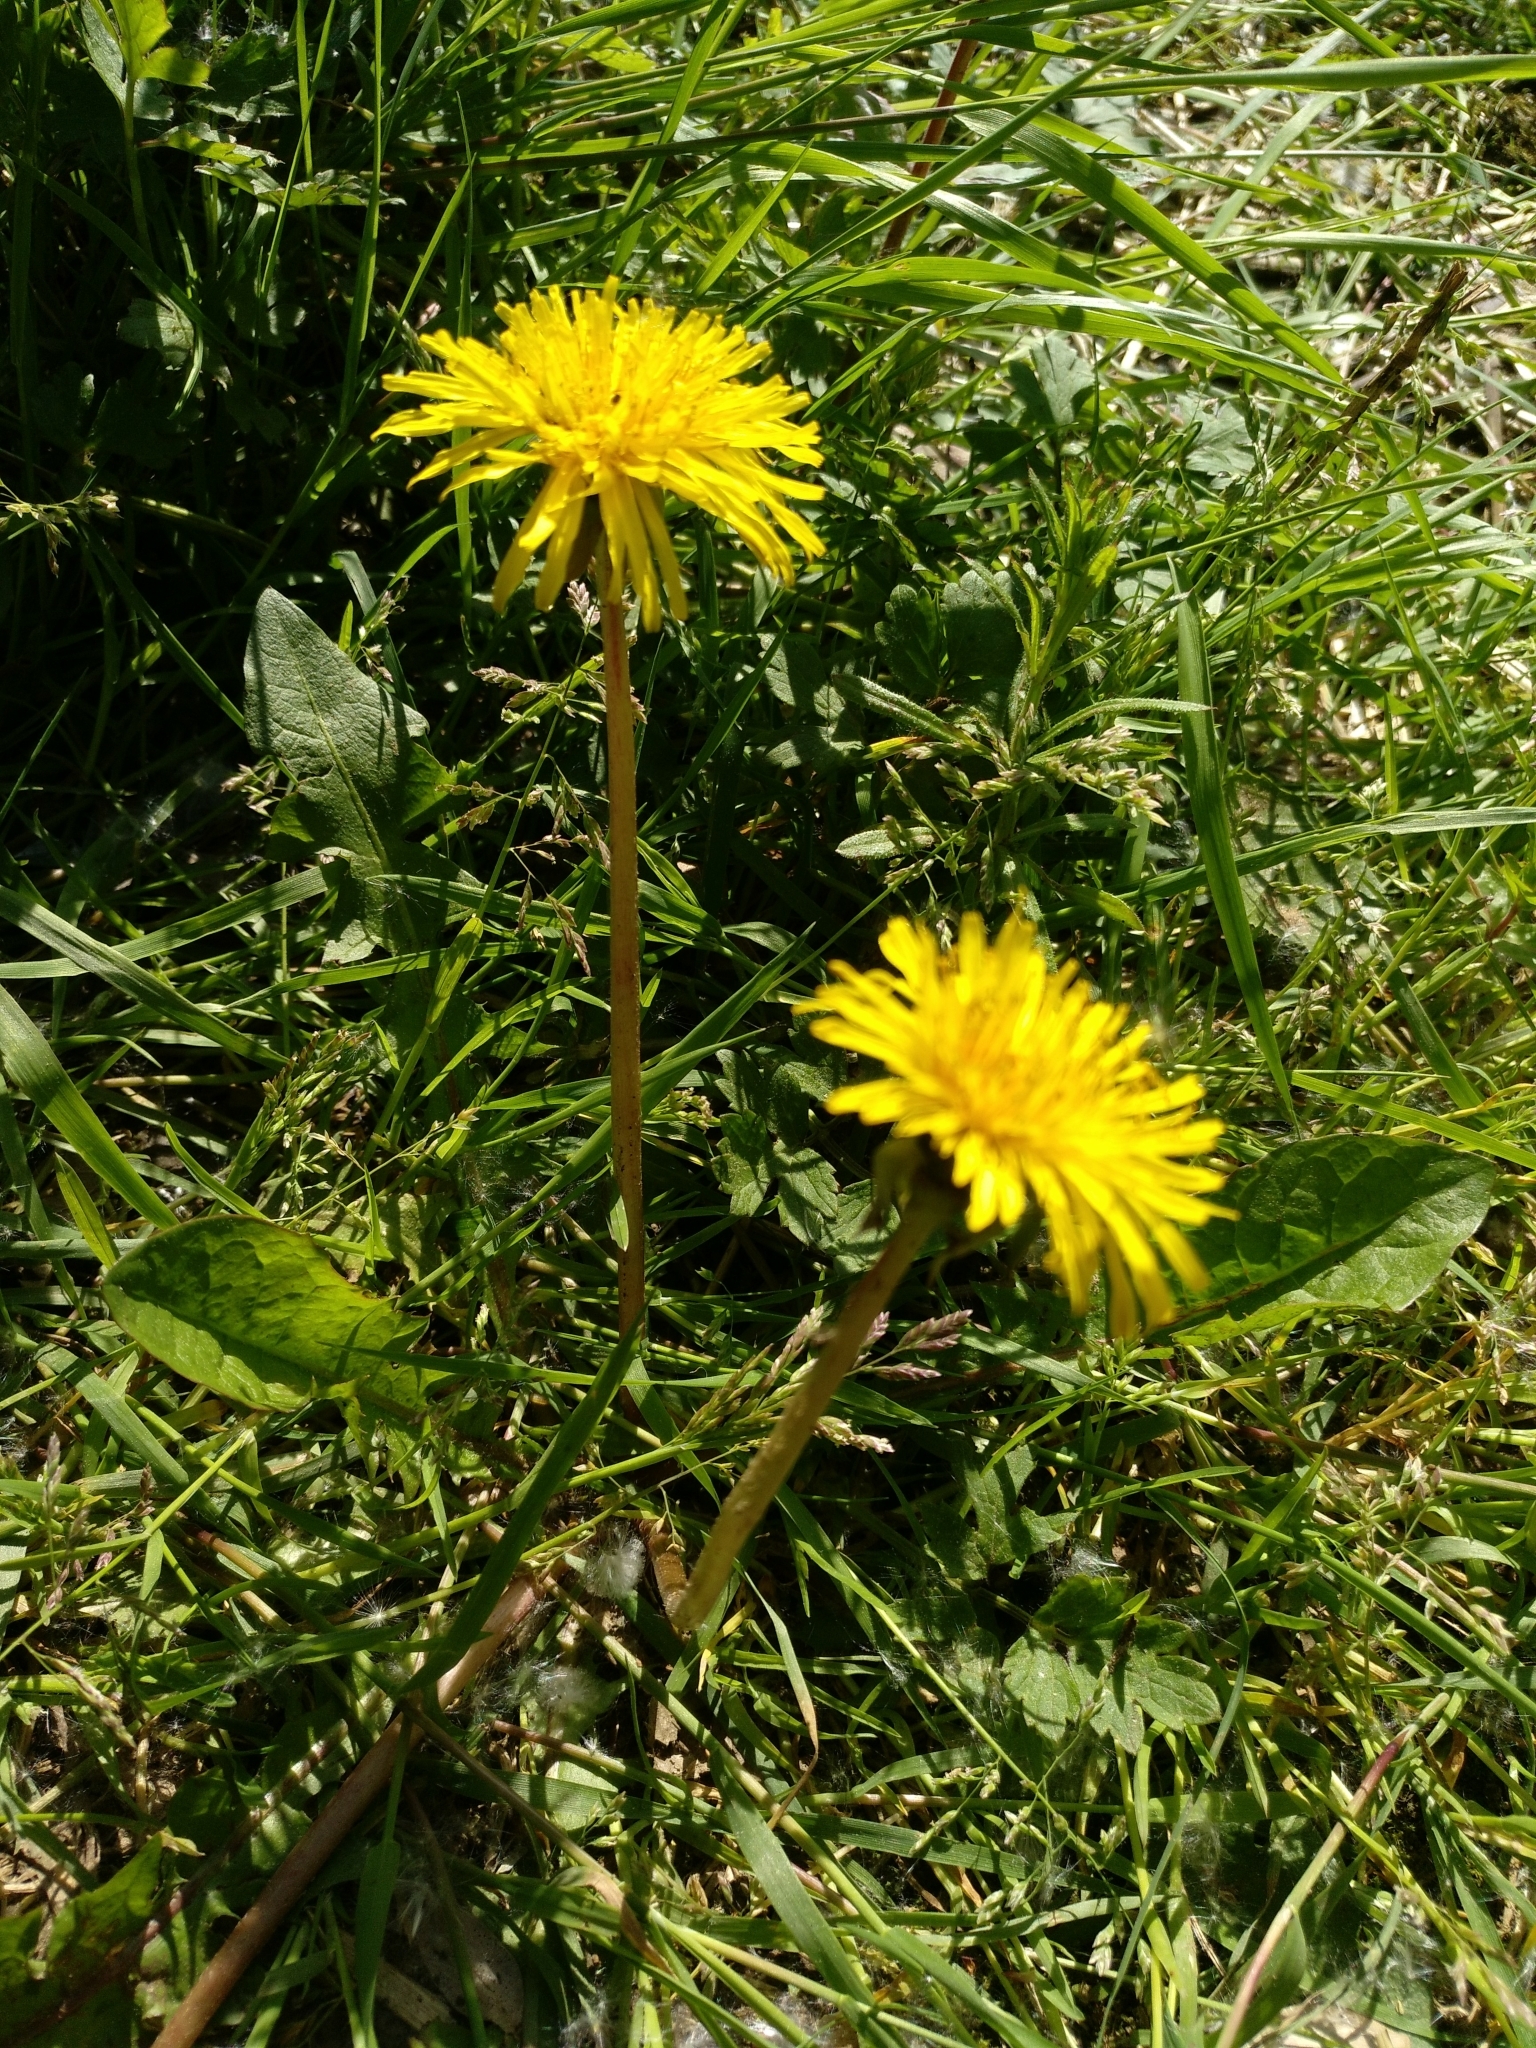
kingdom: Plantae
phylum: Tracheophyta
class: Magnoliopsida
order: Asterales
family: Asteraceae
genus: Taraxacum
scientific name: Taraxacum officinale
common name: Common dandelion
